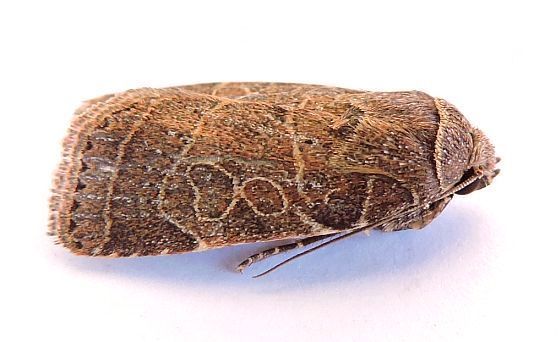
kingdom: Animalia
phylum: Arthropoda
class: Insecta
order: Lepidoptera
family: Noctuidae
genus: Orthodes
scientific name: Orthodes majuscula
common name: Rustic quaker
